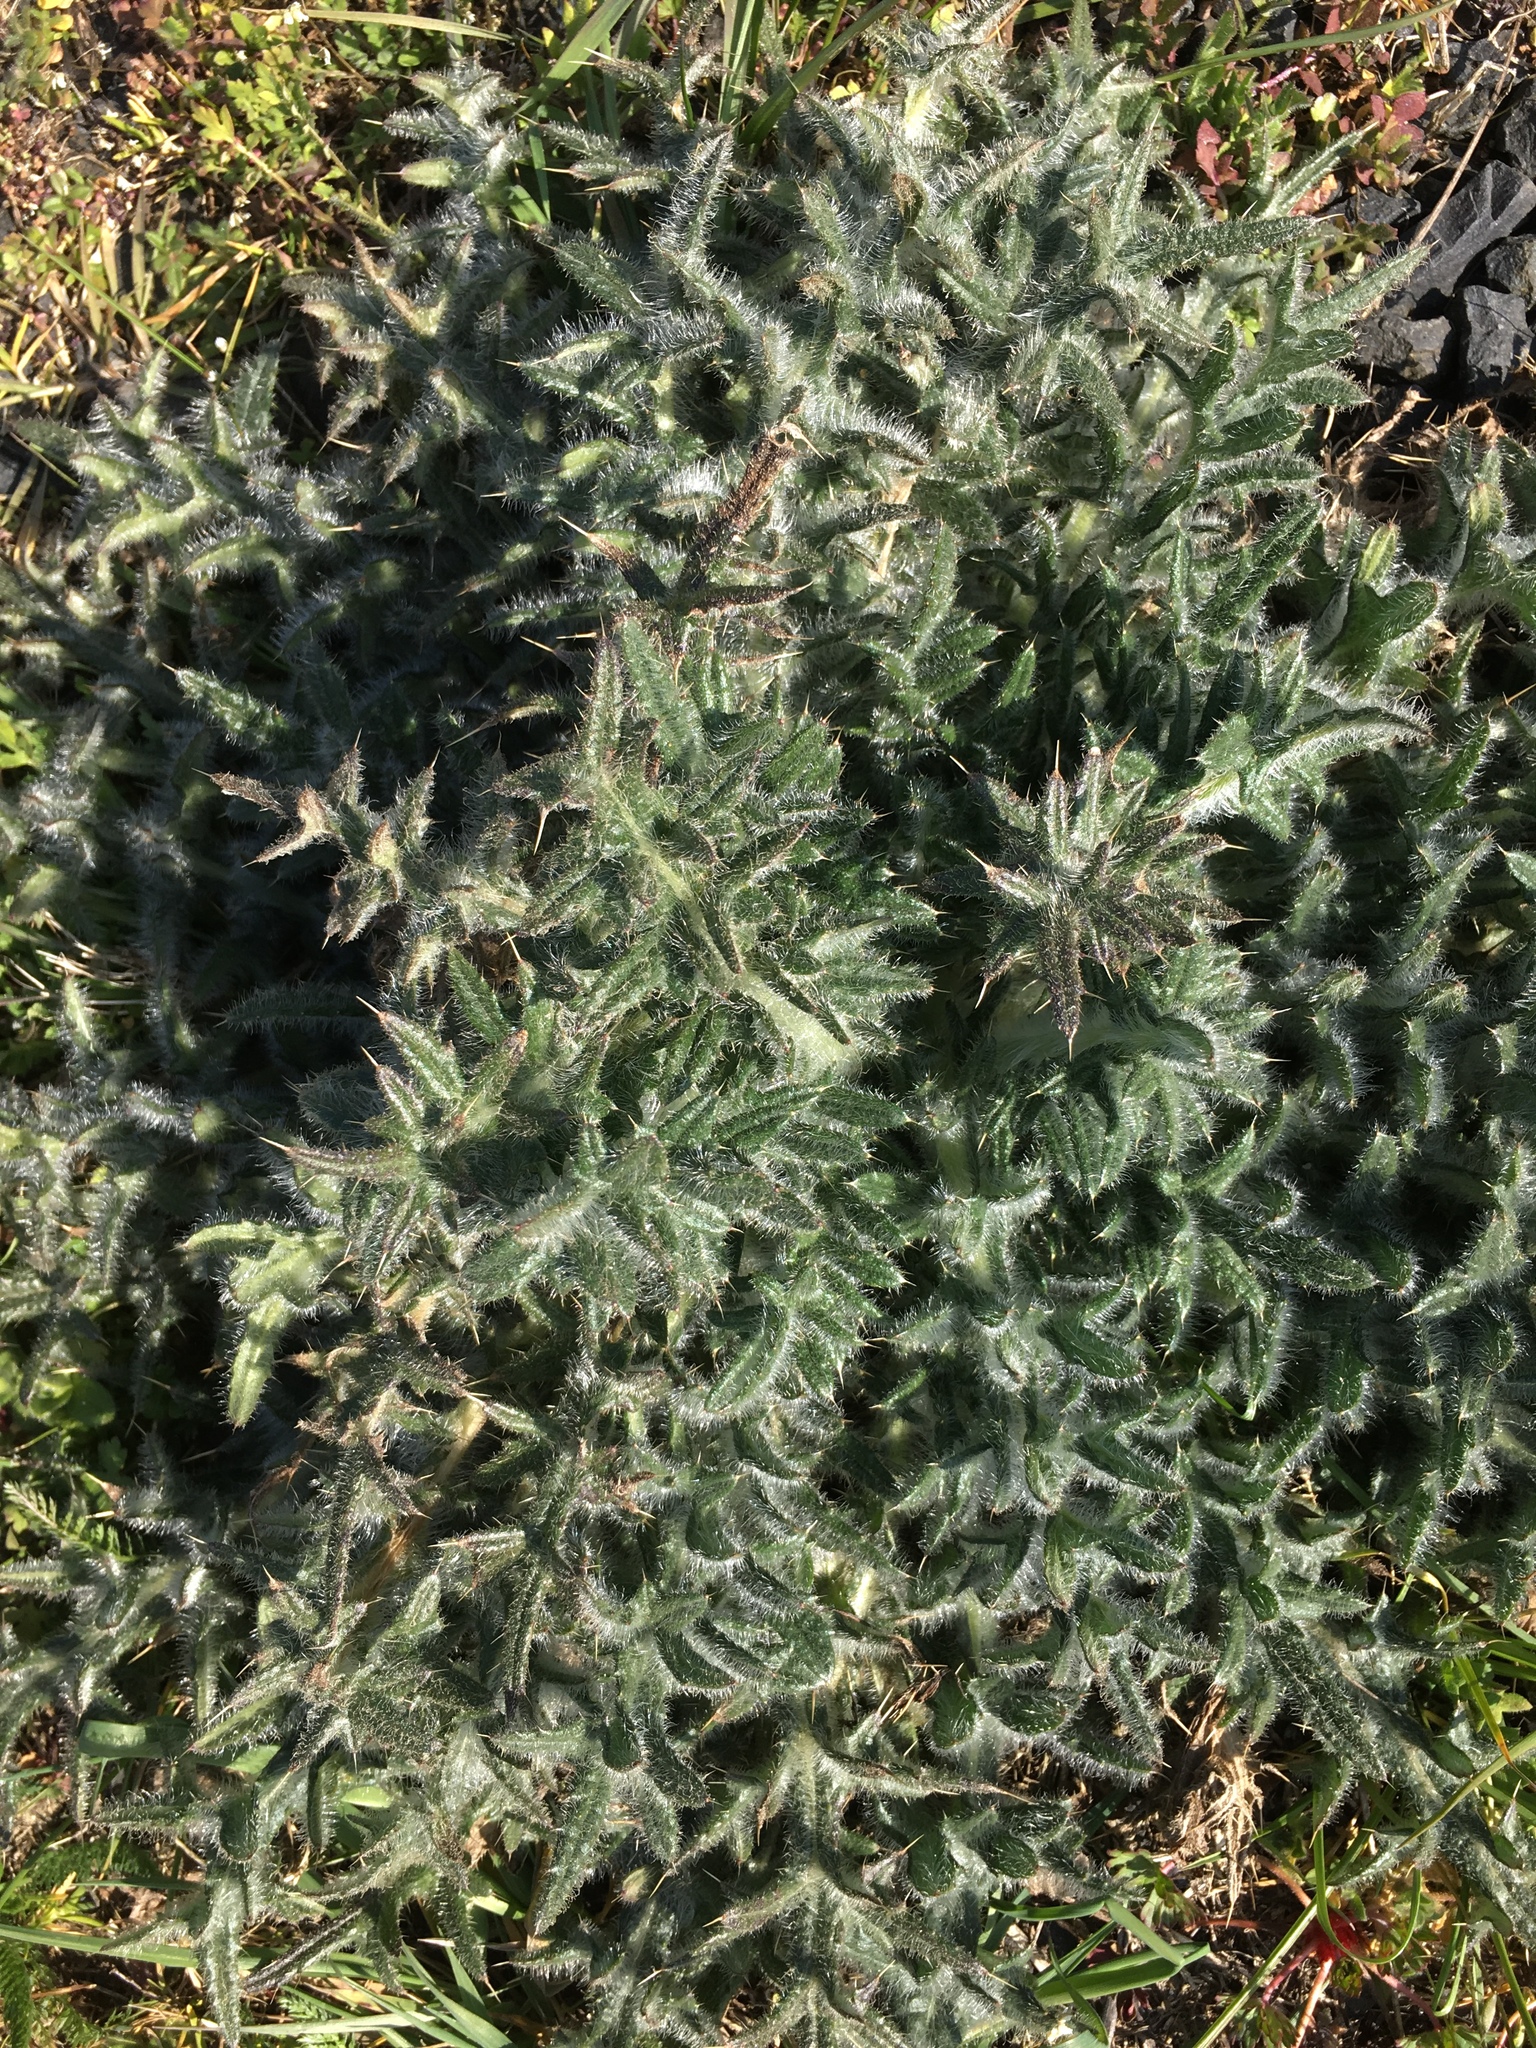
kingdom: Plantae
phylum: Tracheophyta
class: Magnoliopsida
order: Asterales
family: Asteraceae
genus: Cirsium
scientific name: Cirsium vulgare
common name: Bull thistle
